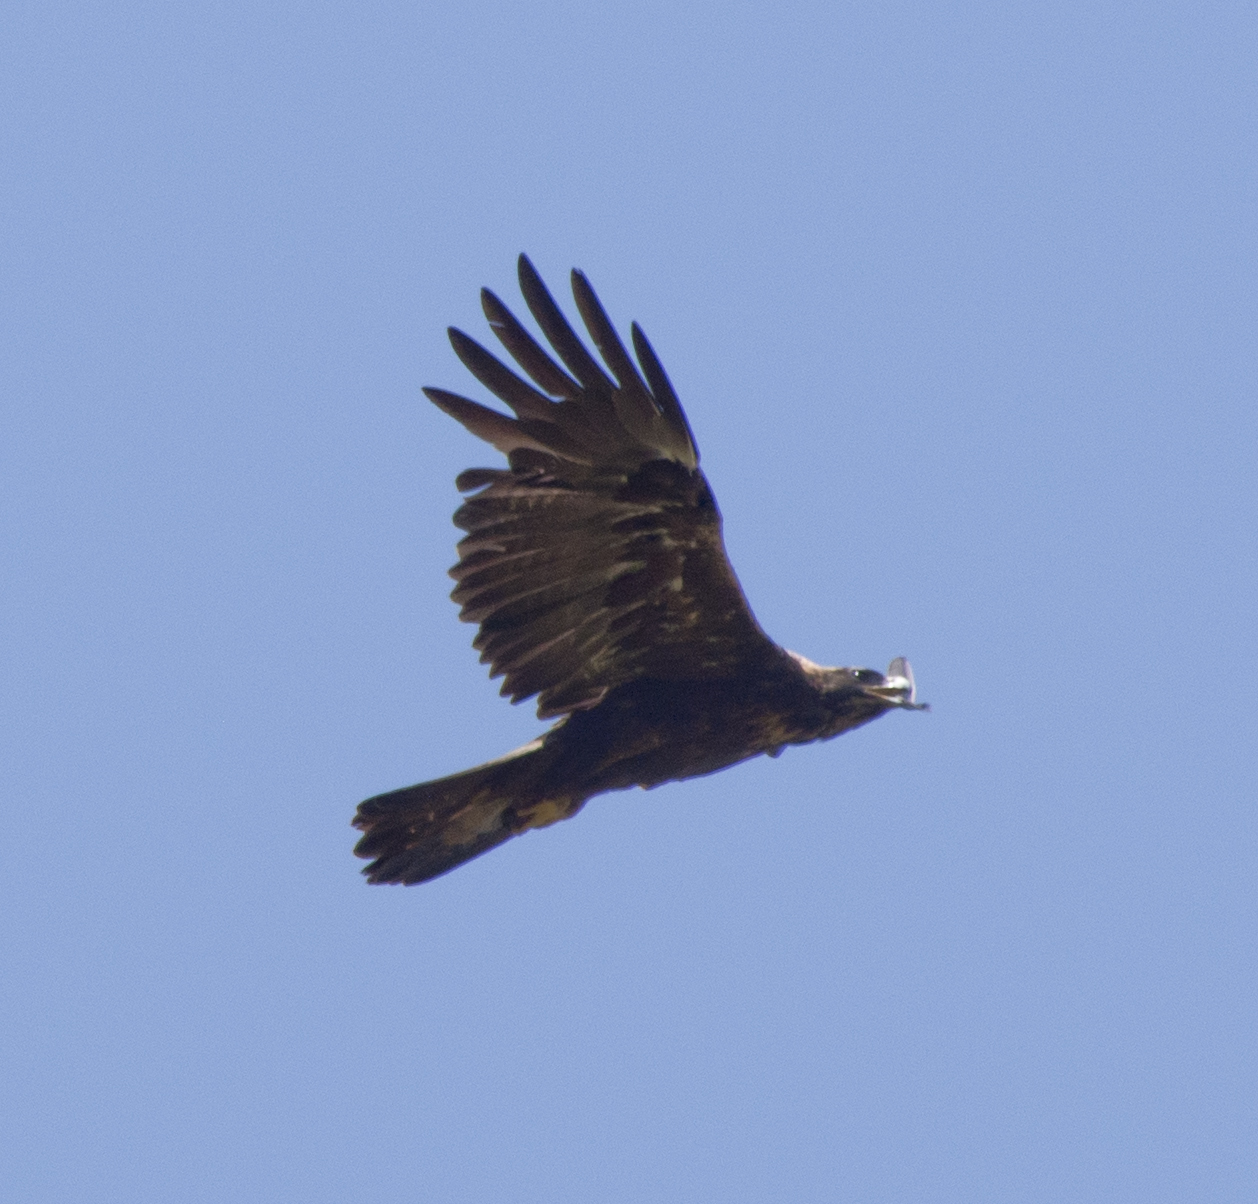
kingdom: Animalia
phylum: Chordata
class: Aves
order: Accipitriformes
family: Accipitridae
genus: Aquila
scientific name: Aquila chrysaetos
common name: Golden eagle
